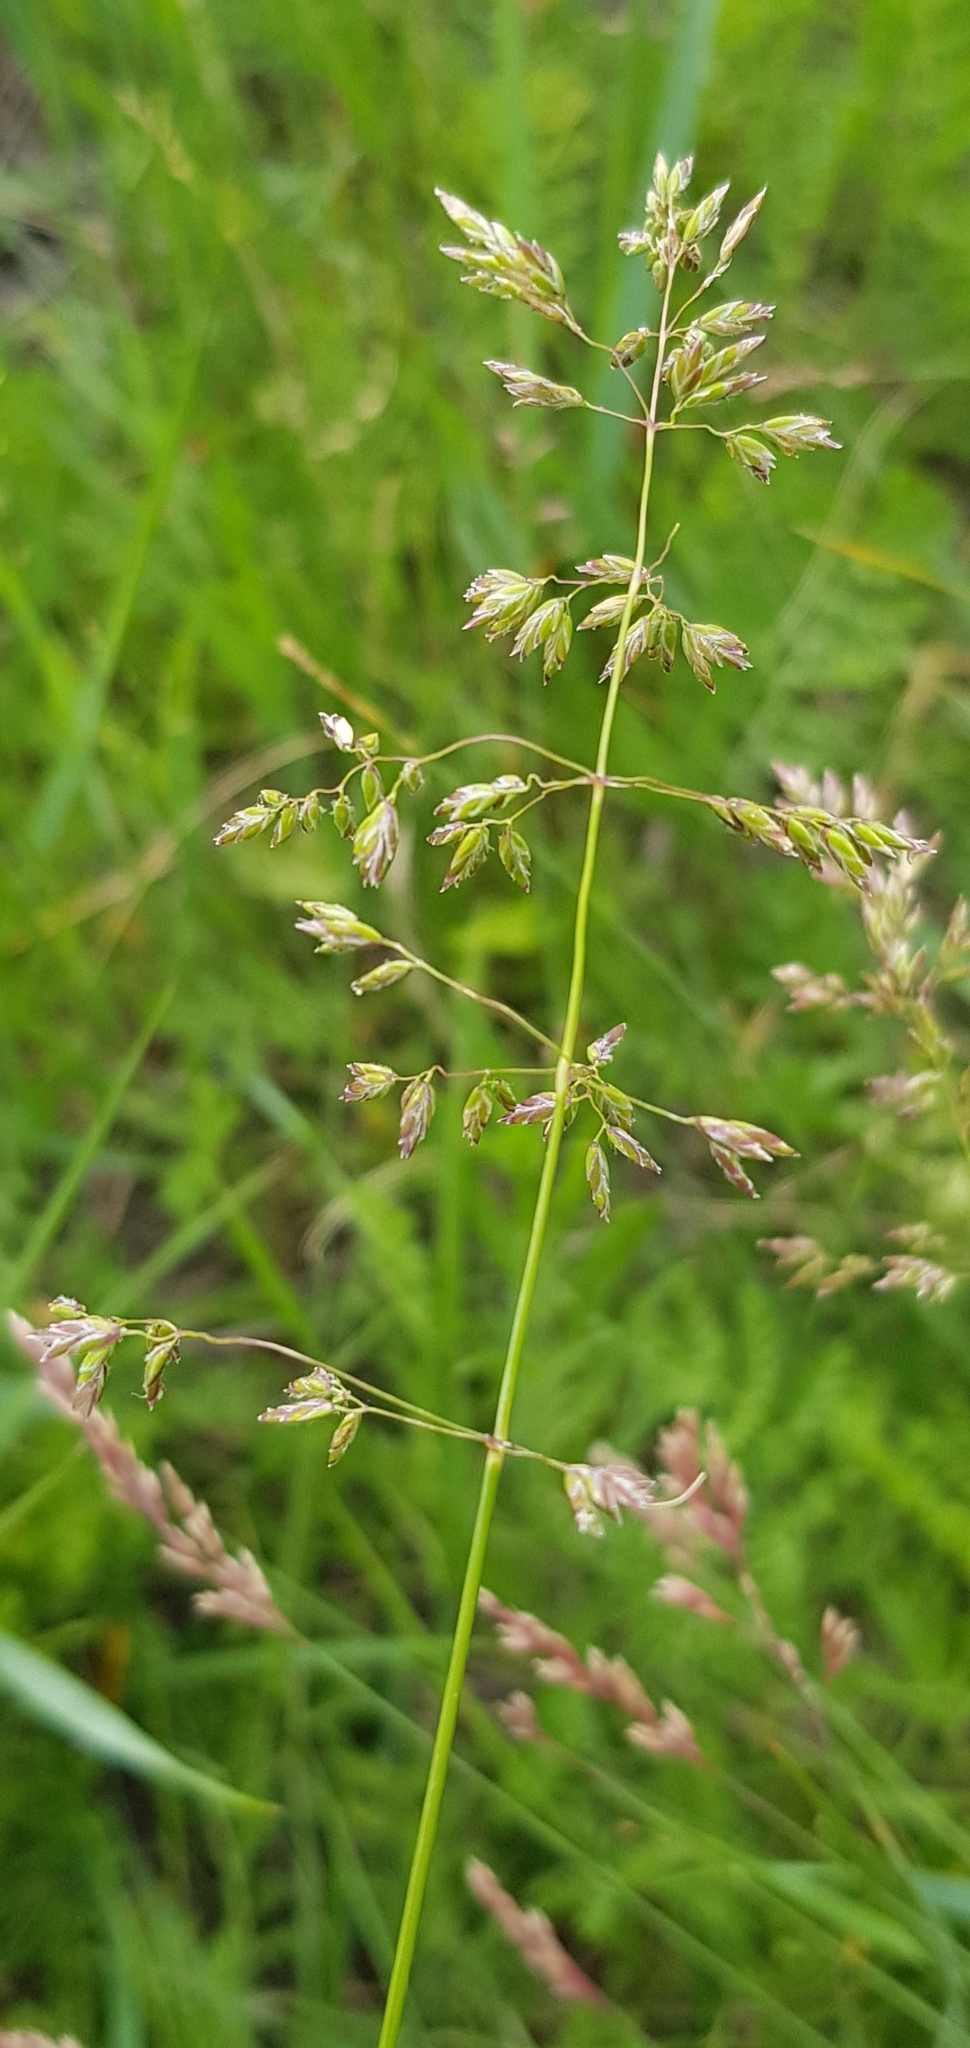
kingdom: Plantae
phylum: Tracheophyta
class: Liliopsida
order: Poales
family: Poaceae
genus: Poa
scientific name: Poa pratensis
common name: Kentucky bluegrass
